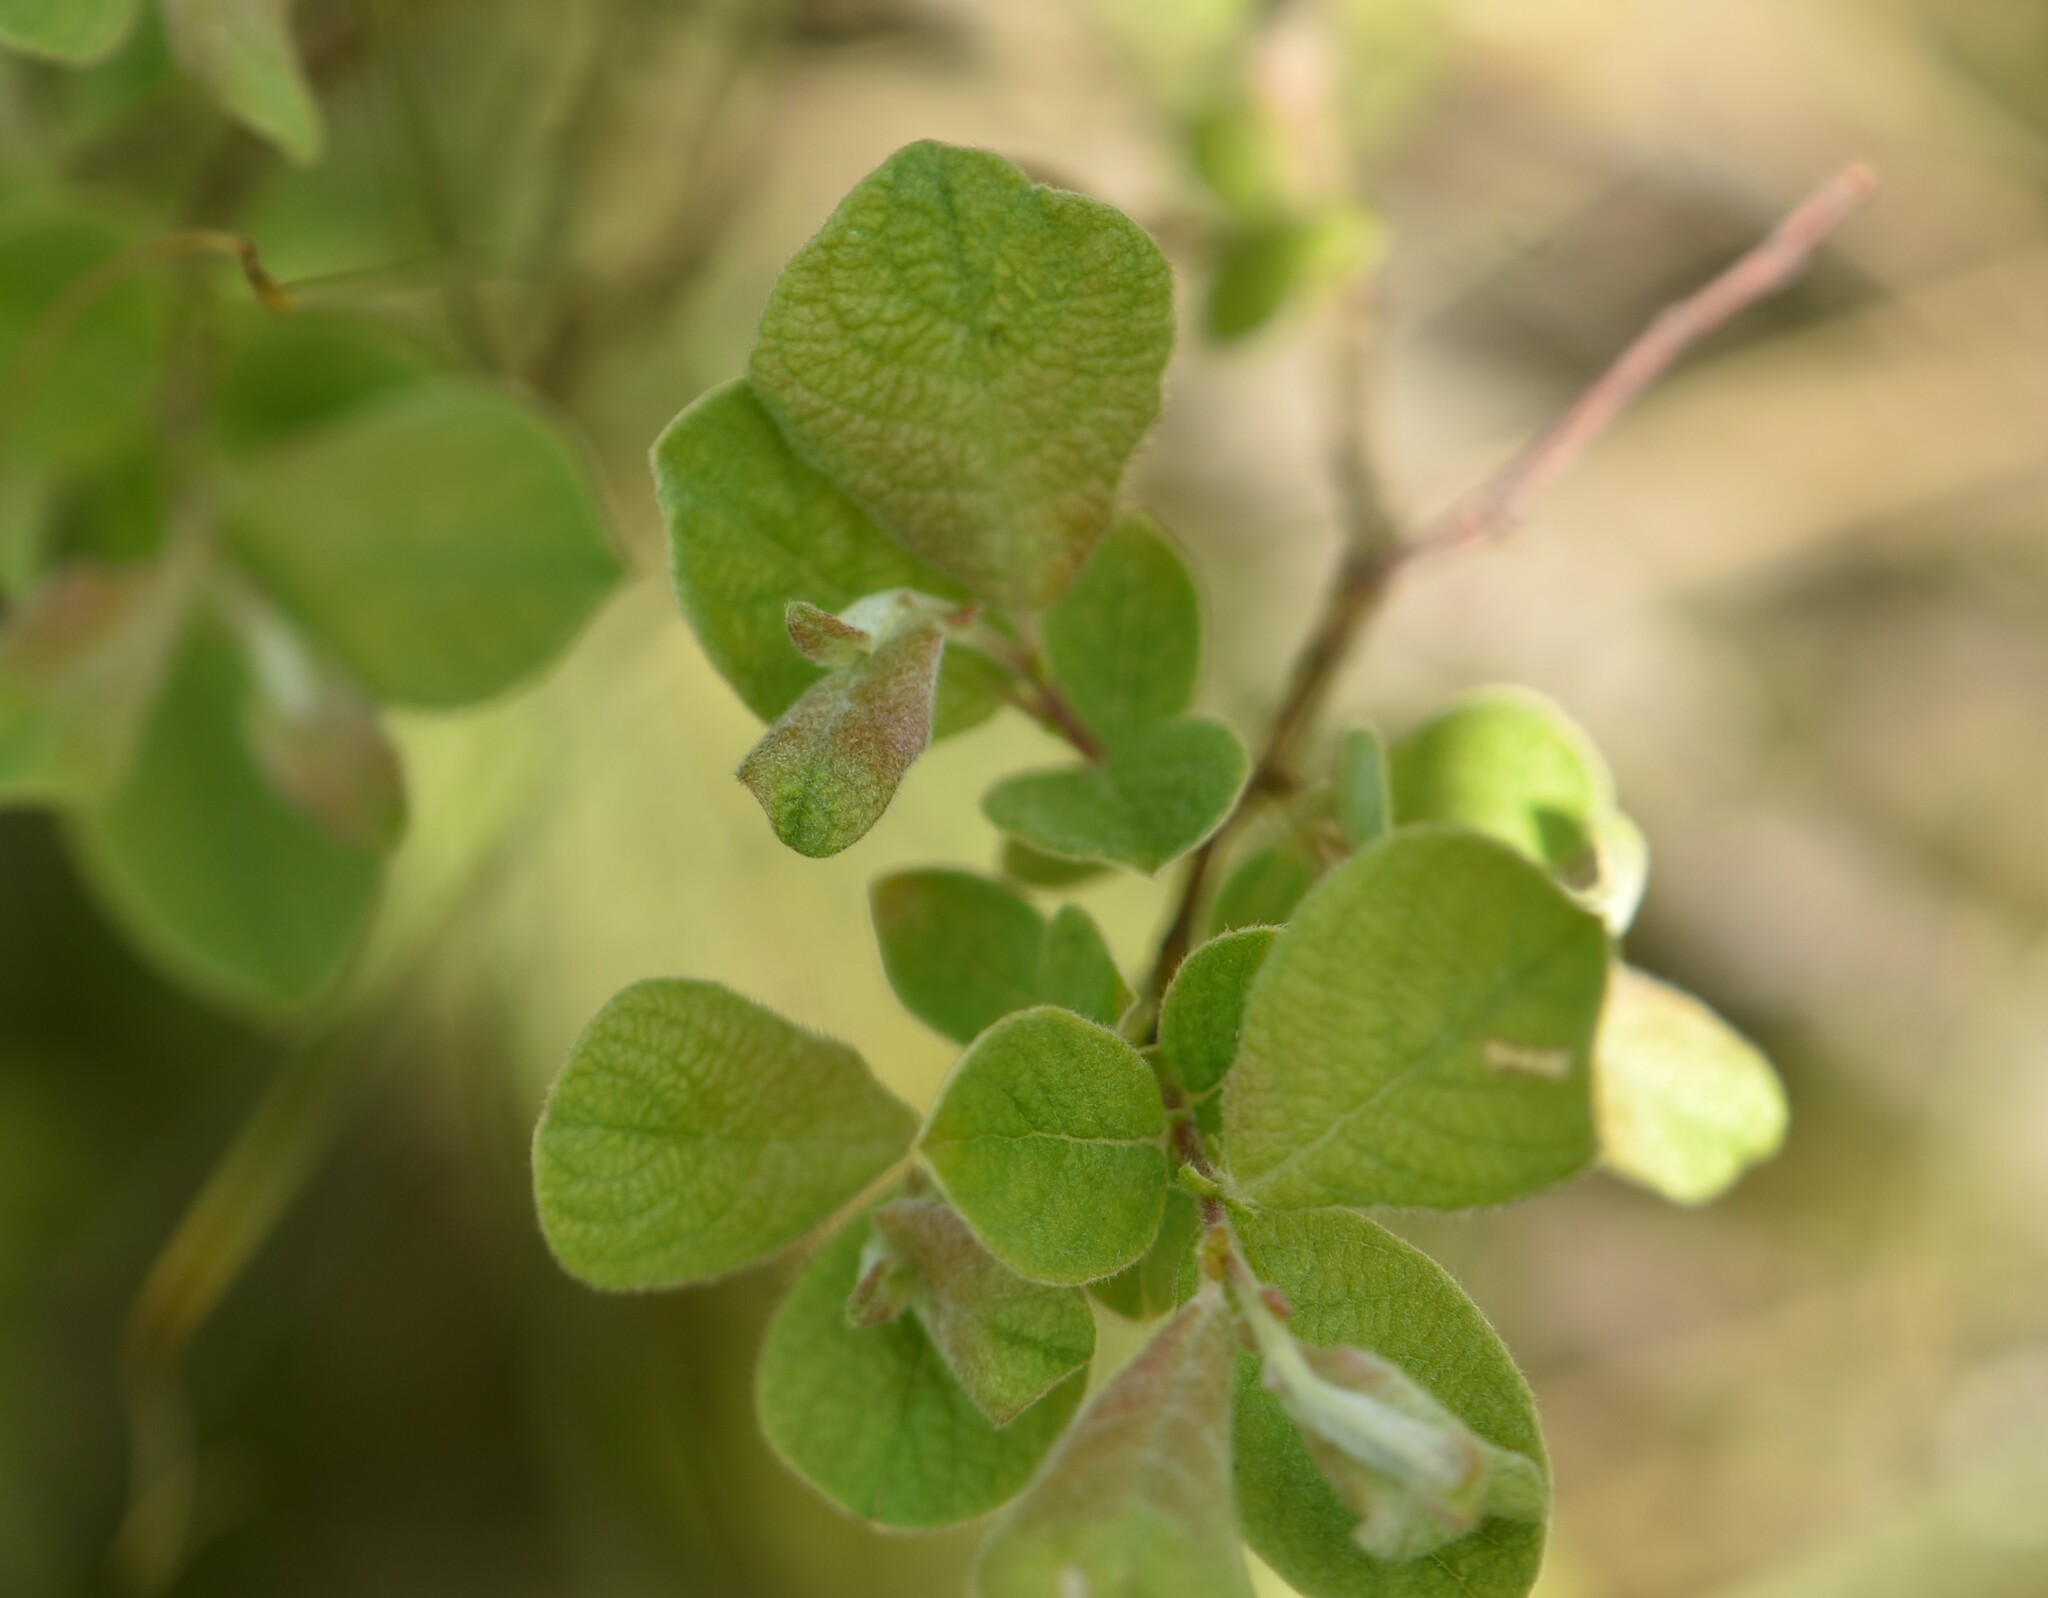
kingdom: Plantae
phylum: Tracheophyta
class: Magnoliopsida
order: Malpighiales
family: Salicaceae
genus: Salix
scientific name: Salix aurita
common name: Eared willow
